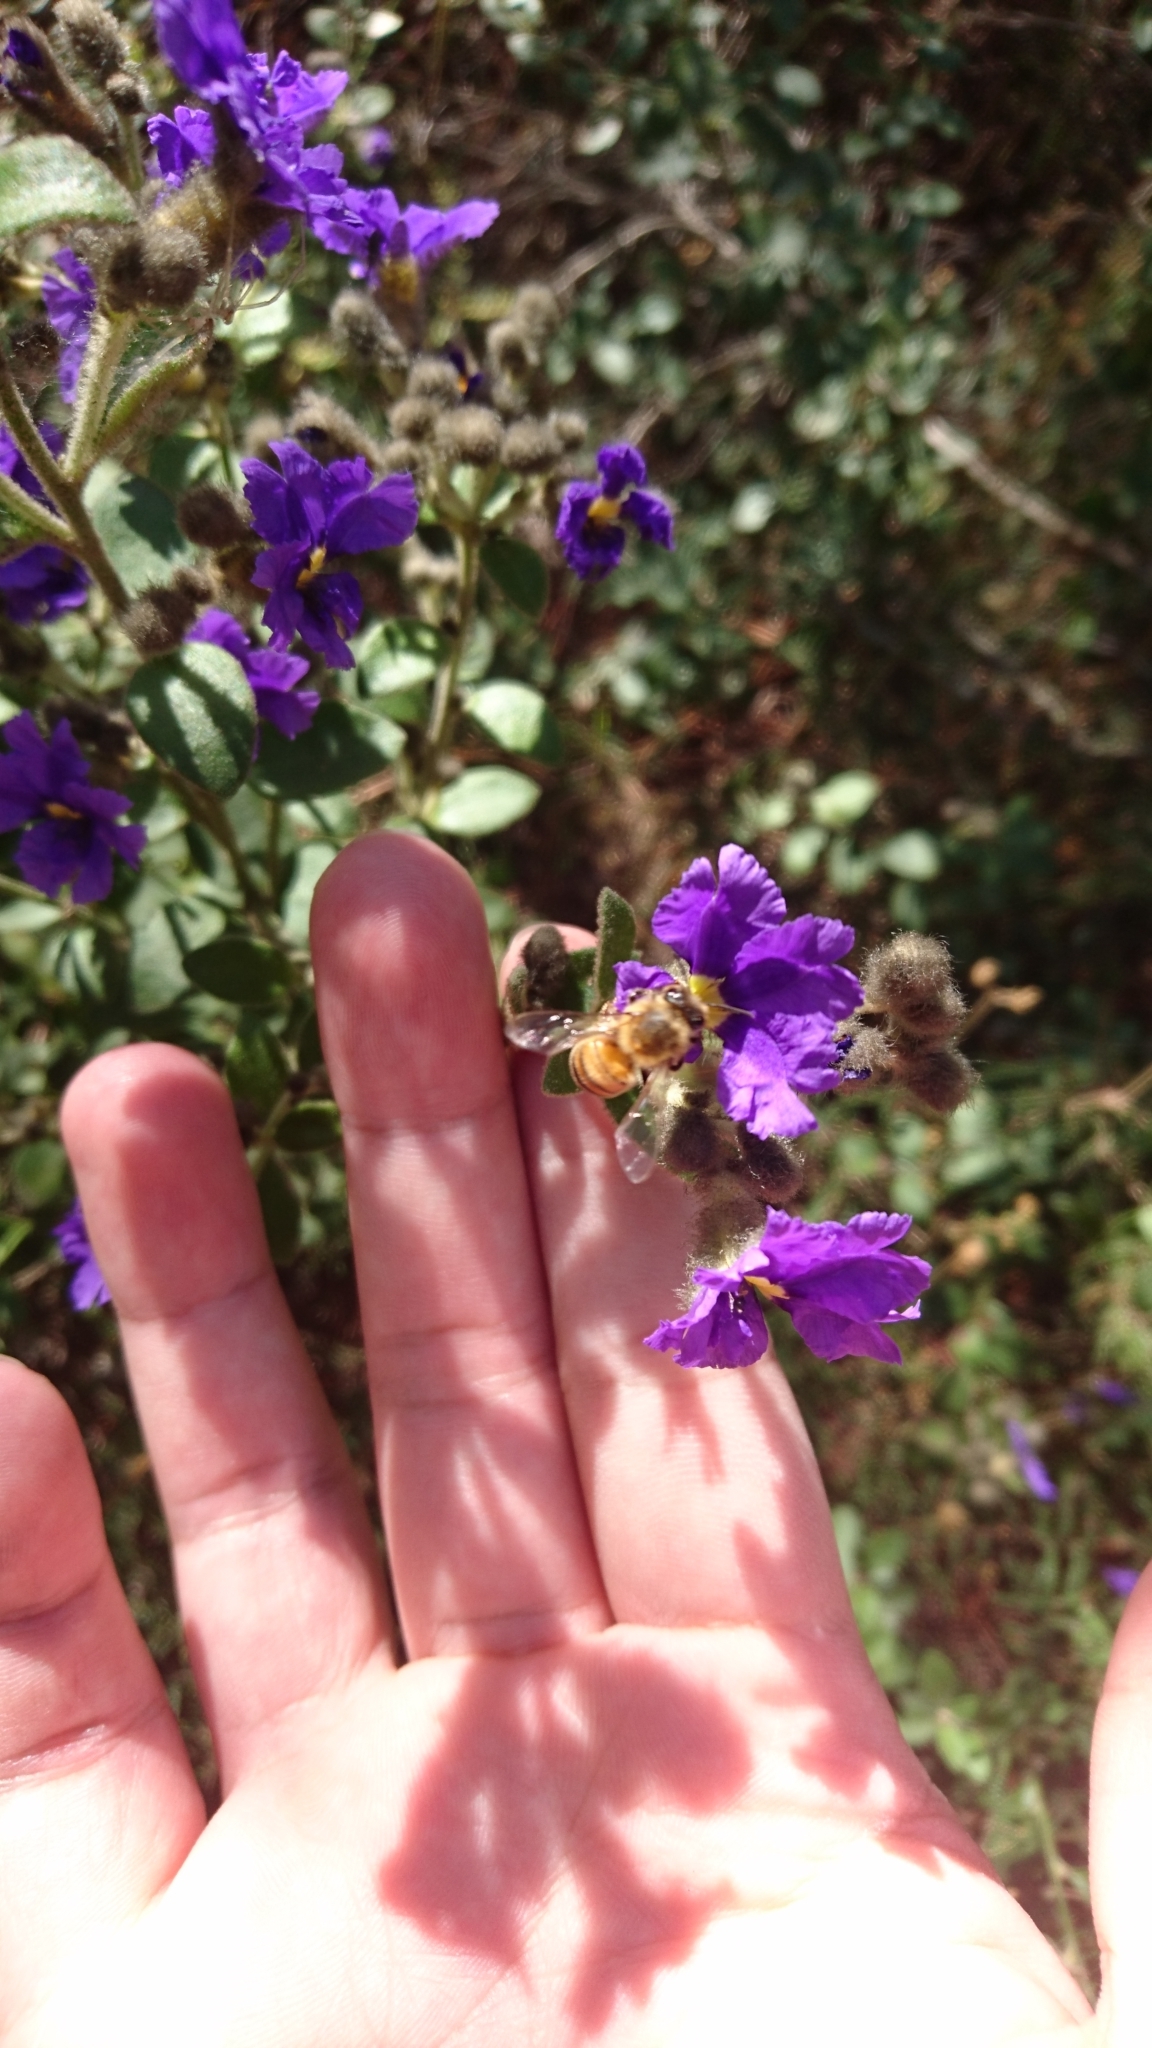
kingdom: Animalia
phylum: Arthropoda
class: Insecta
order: Hymenoptera
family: Apidae
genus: Apis
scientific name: Apis mellifera
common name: Honey bee
